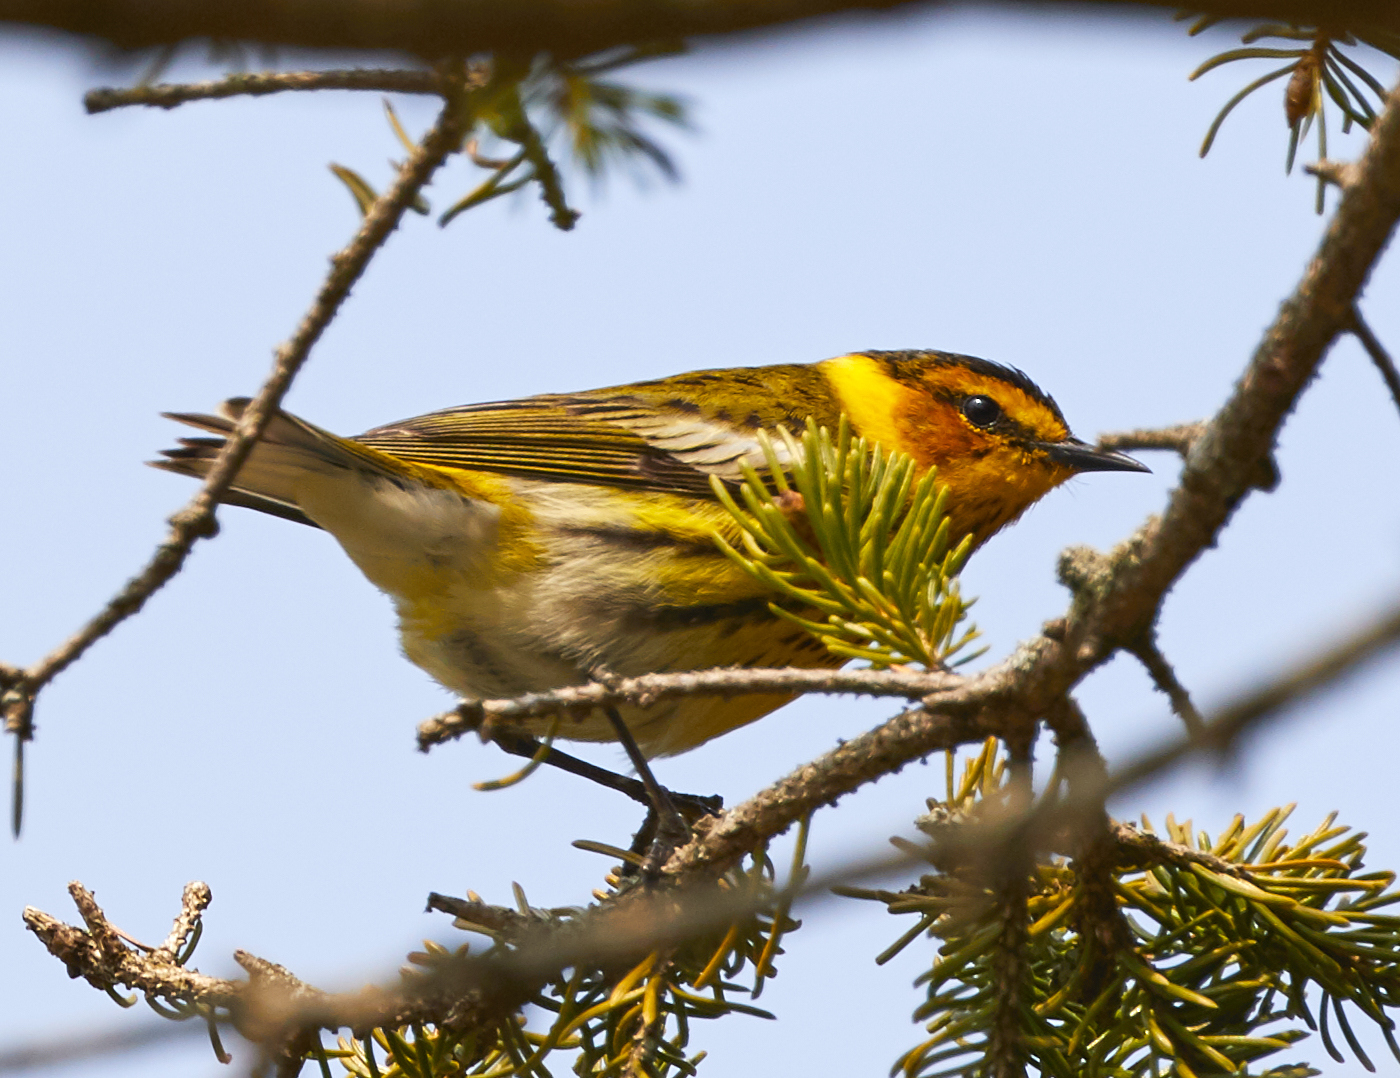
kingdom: Animalia
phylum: Chordata
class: Aves
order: Passeriformes
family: Parulidae
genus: Setophaga
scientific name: Setophaga tigrina
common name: Cape may warbler
